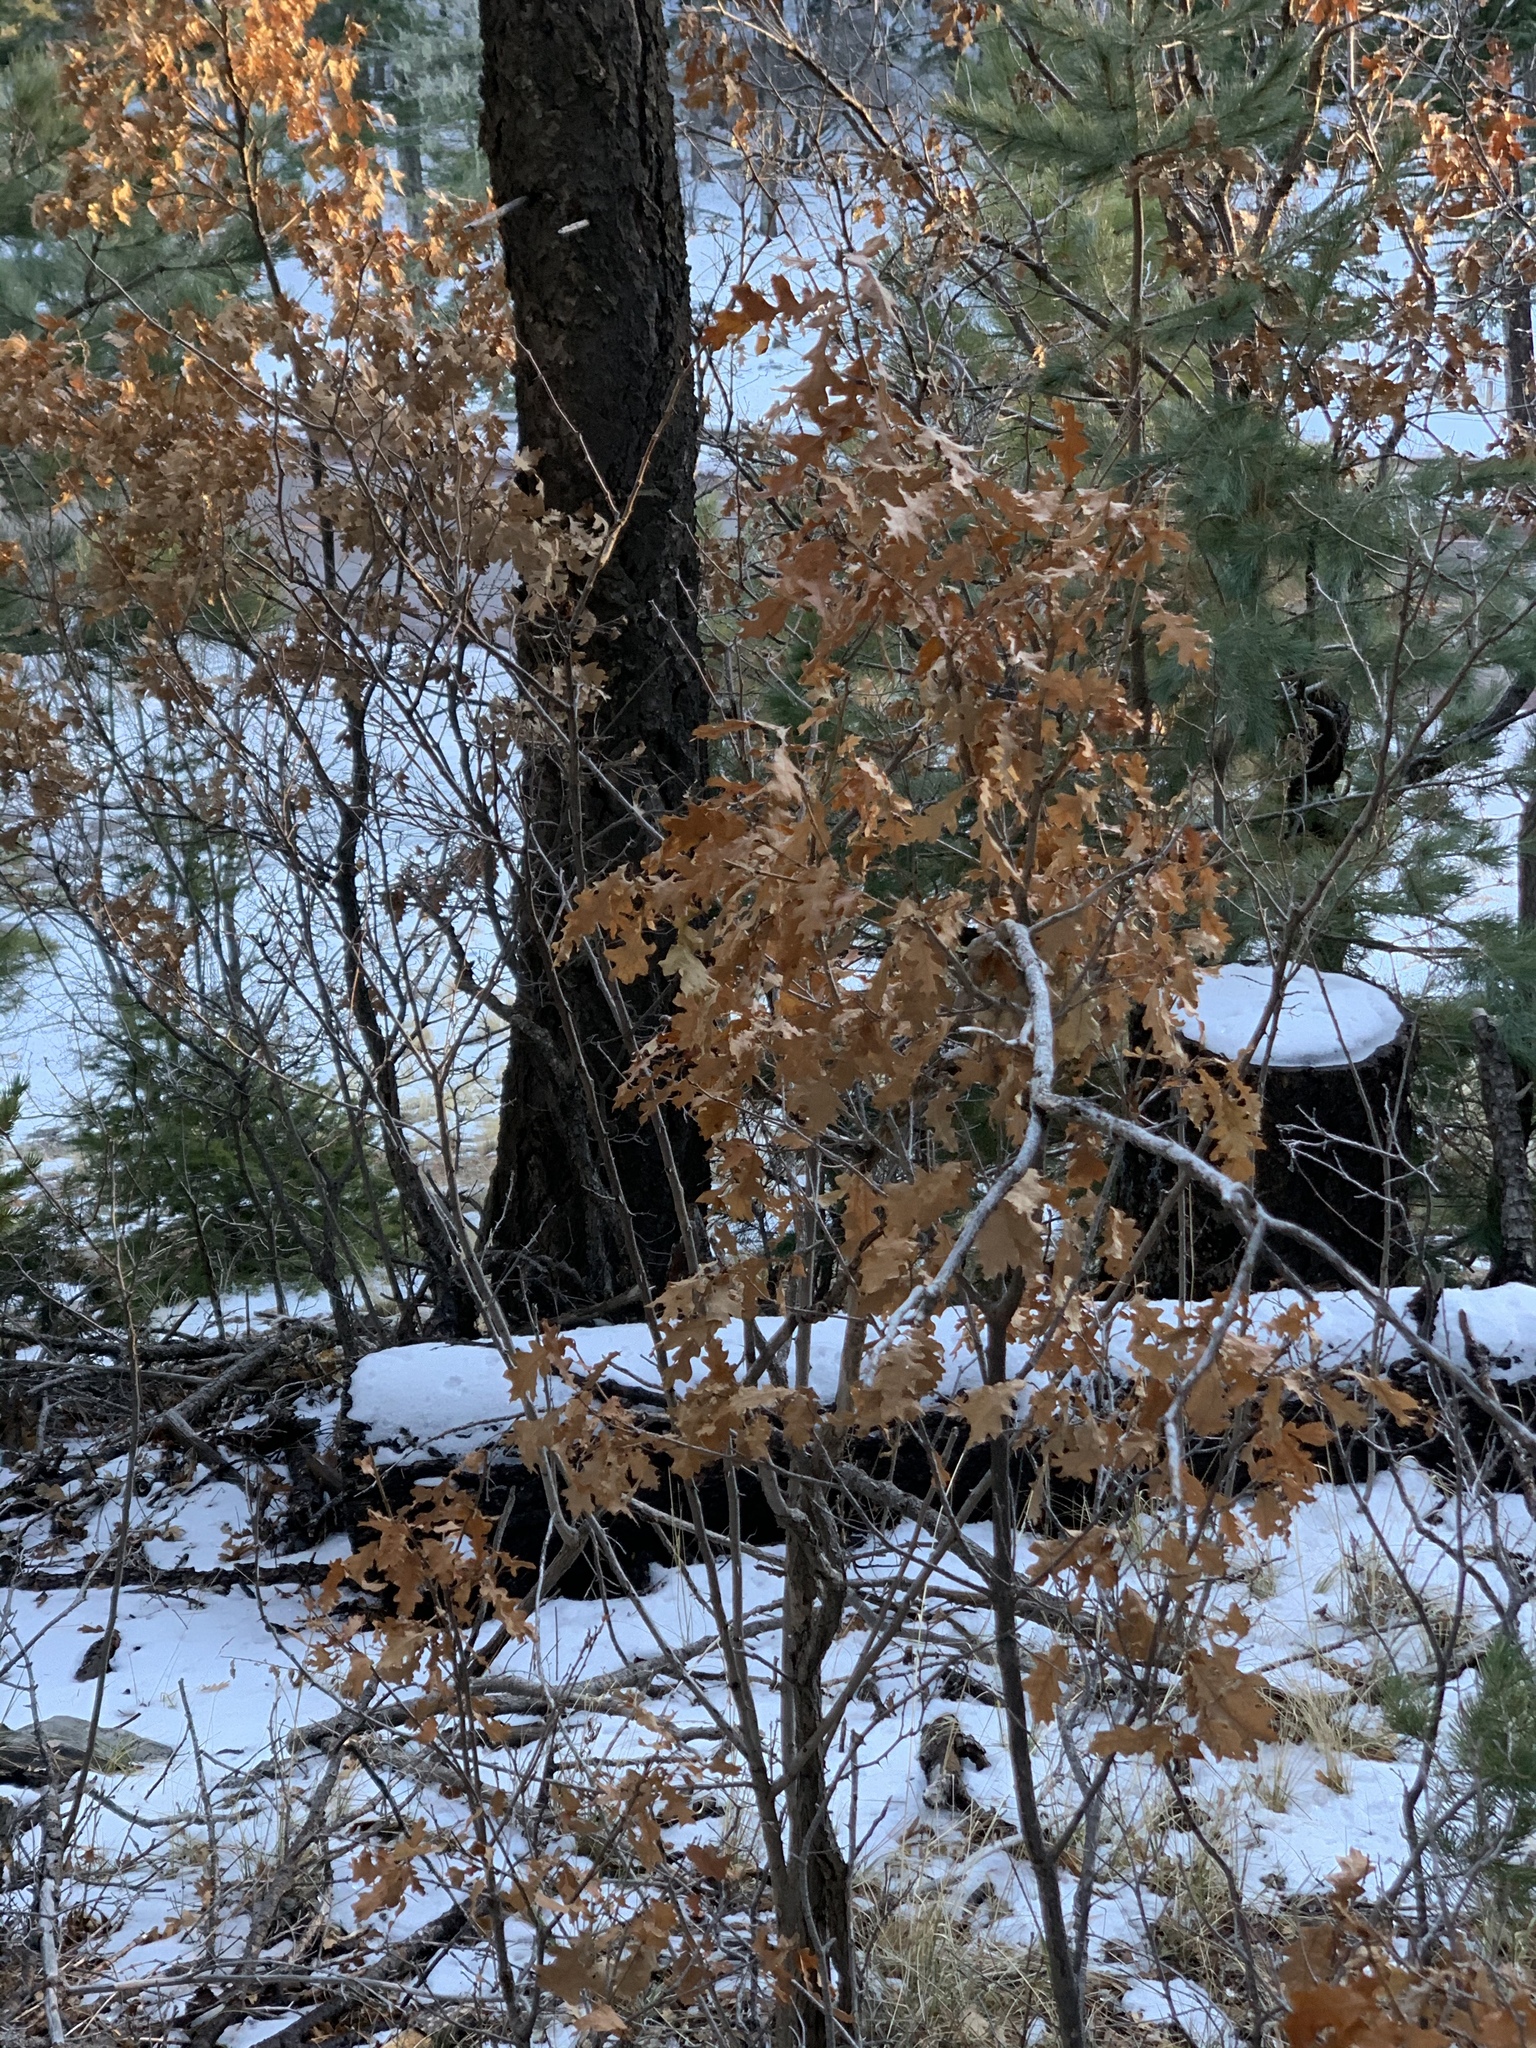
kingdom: Plantae
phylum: Tracheophyta
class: Magnoliopsida
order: Fagales
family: Fagaceae
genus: Quercus
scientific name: Quercus gambelii
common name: Gambel oak
